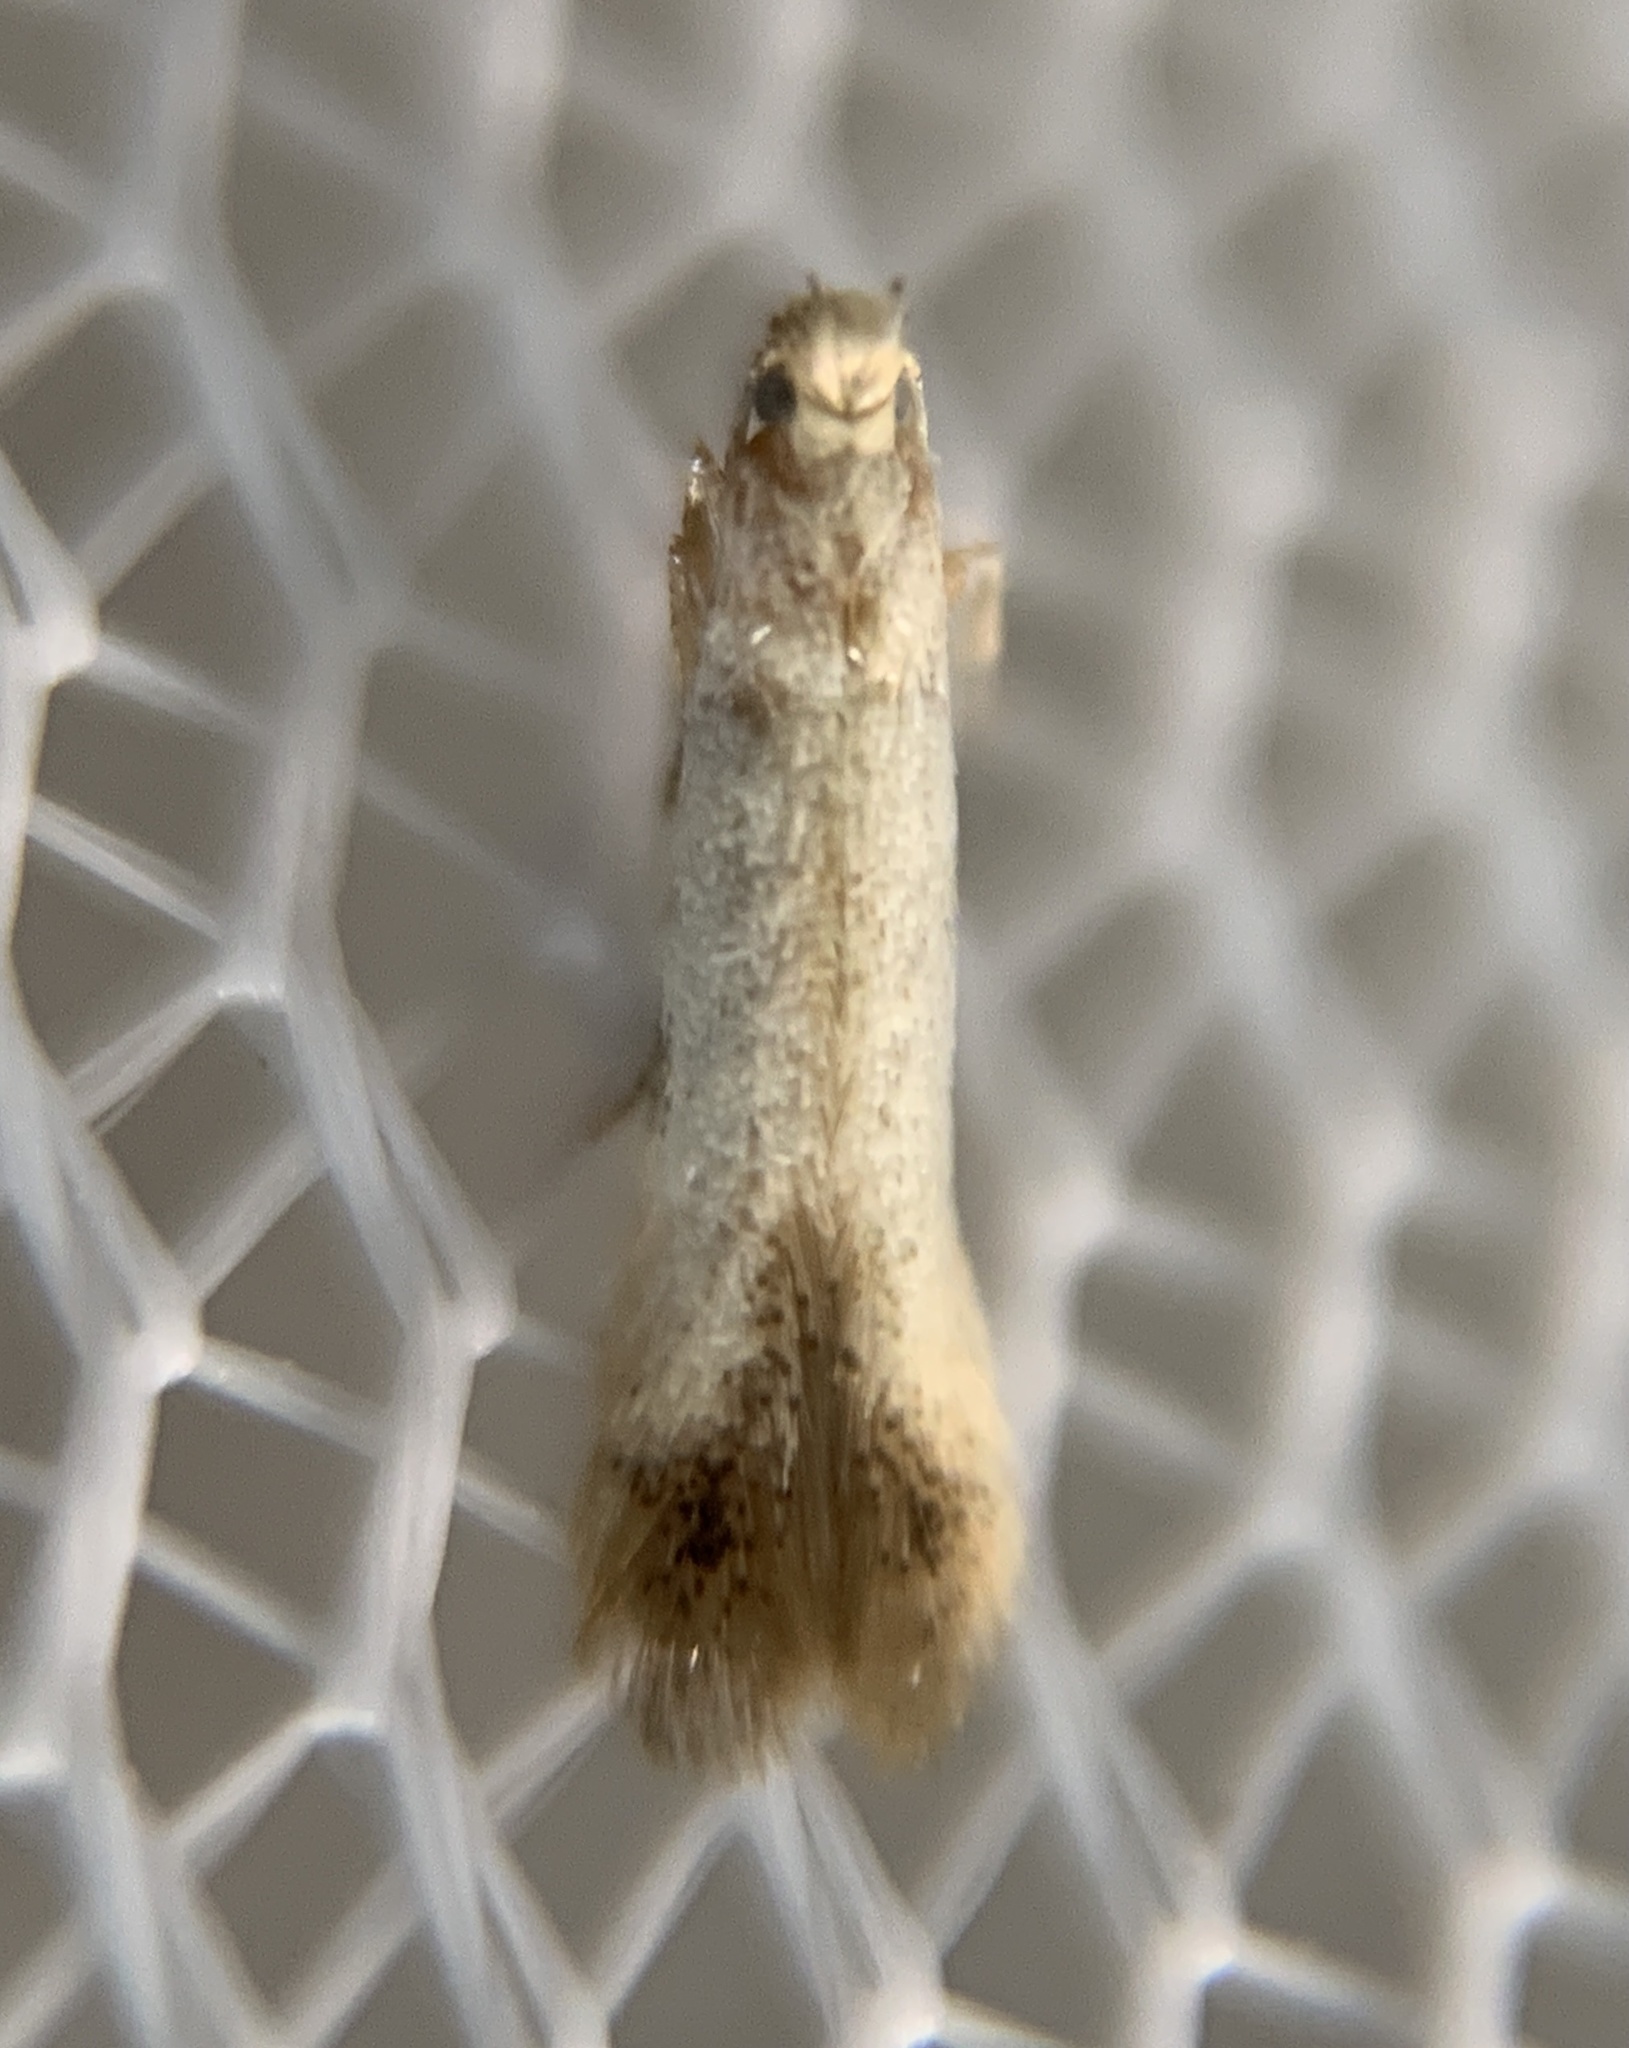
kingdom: Animalia
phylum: Arthropoda
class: Insecta
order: Lepidoptera
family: Tischeriidae
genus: Coptotriche
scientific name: Coptotriche purinosella
